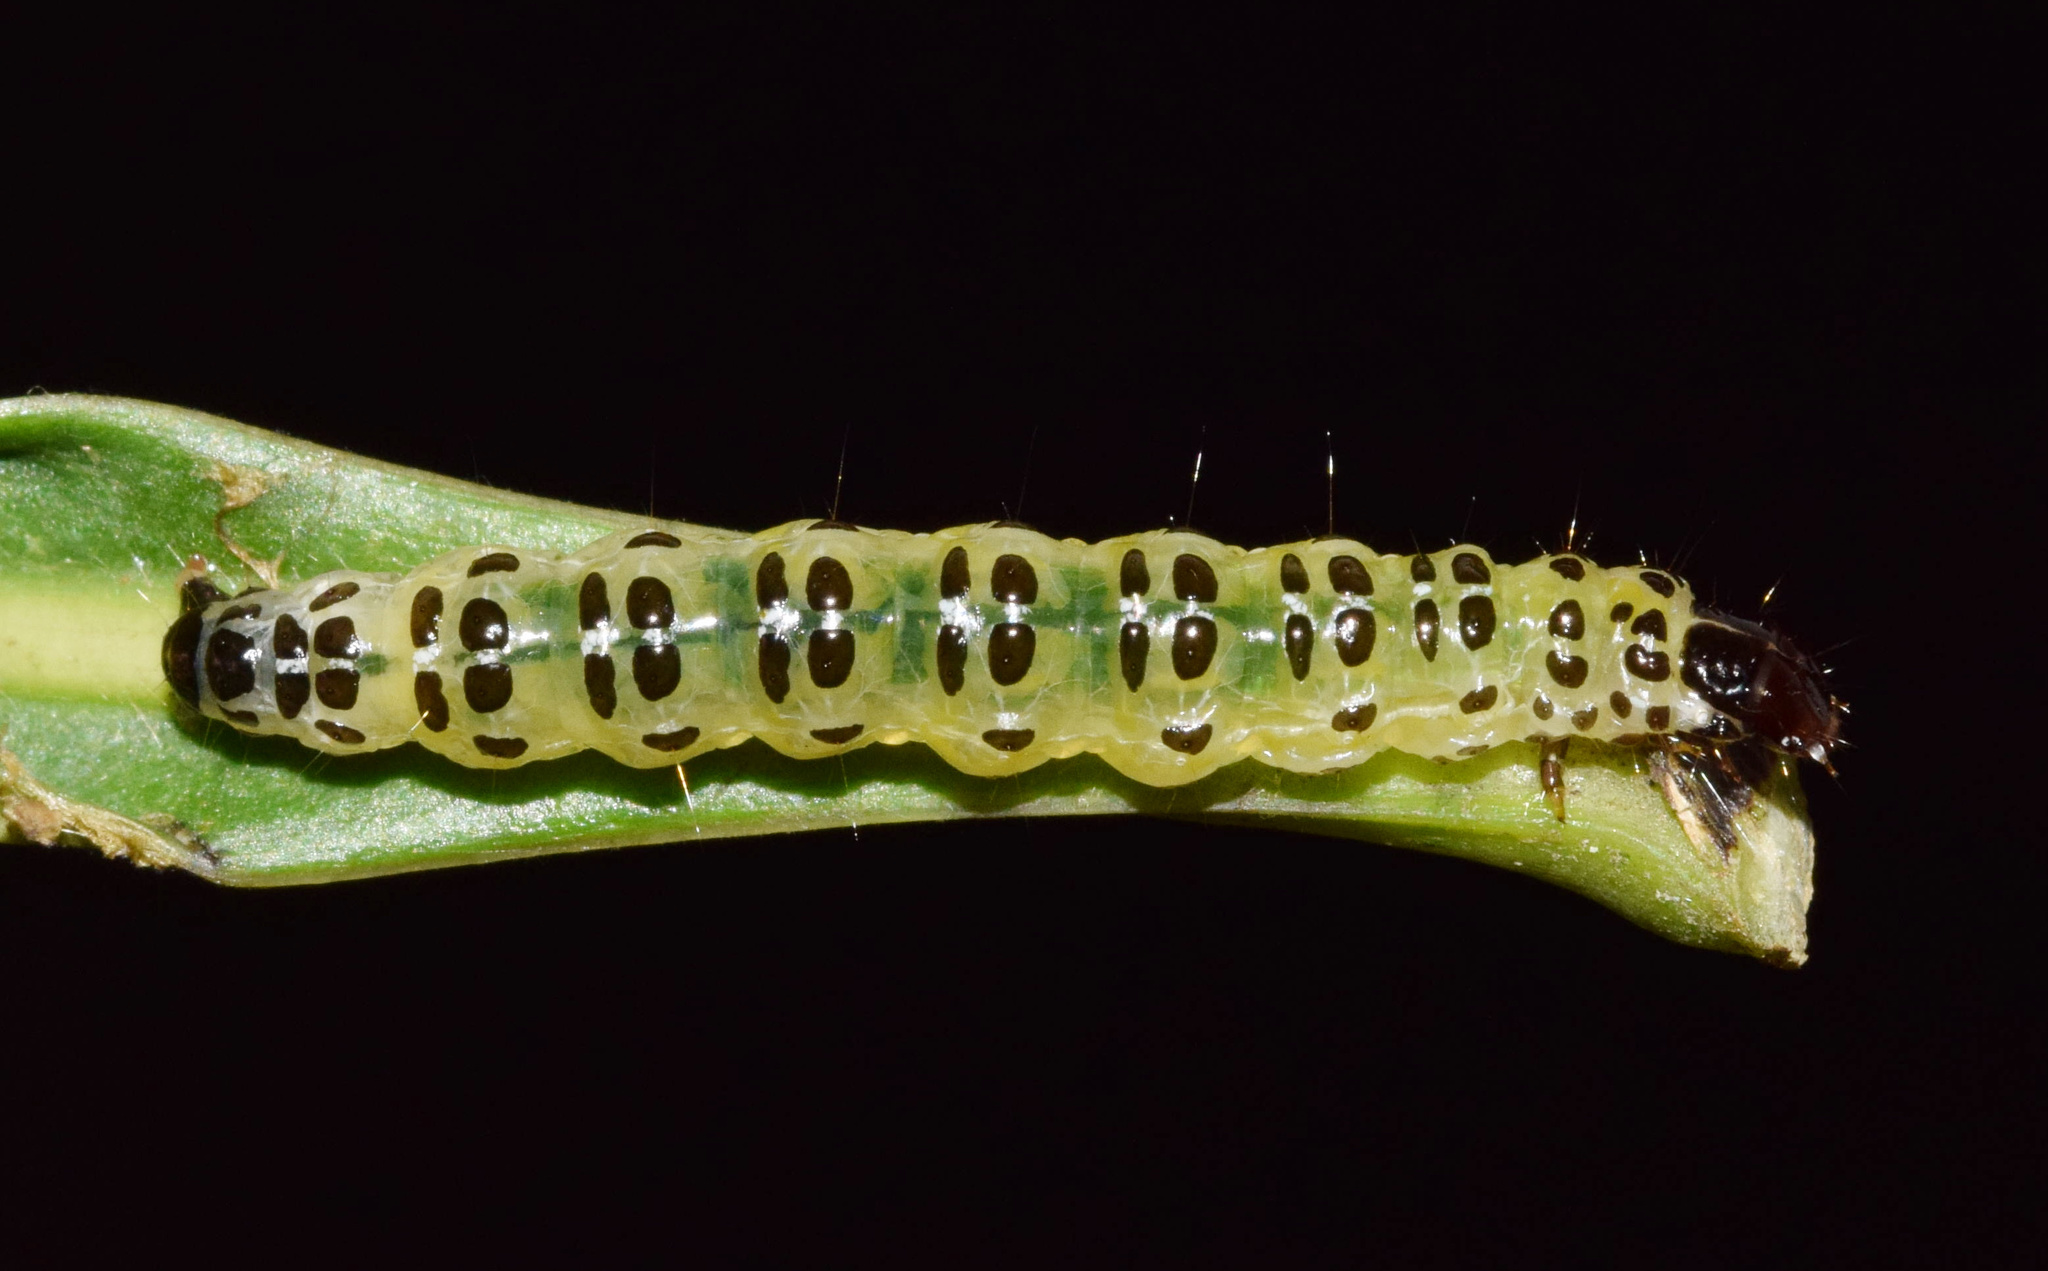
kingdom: Animalia
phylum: Arthropoda
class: Insecta
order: Lepidoptera
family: Crambidae
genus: Cryptographis
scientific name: Cryptographis elealis
